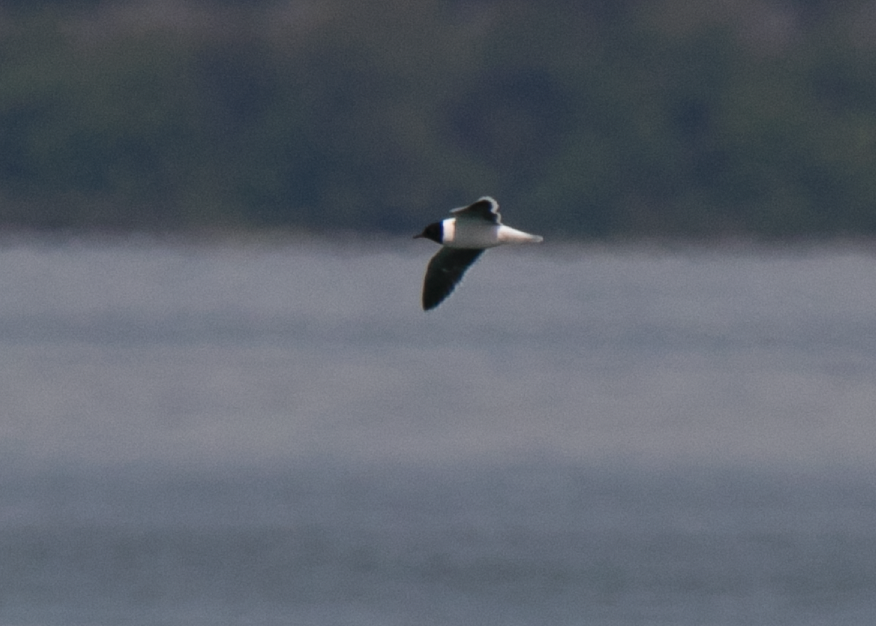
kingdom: Animalia
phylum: Chordata
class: Aves
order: Charadriiformes
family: Laridae
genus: Hydrocoloeus
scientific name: Hydrocoloeus minutus
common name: Little gull
